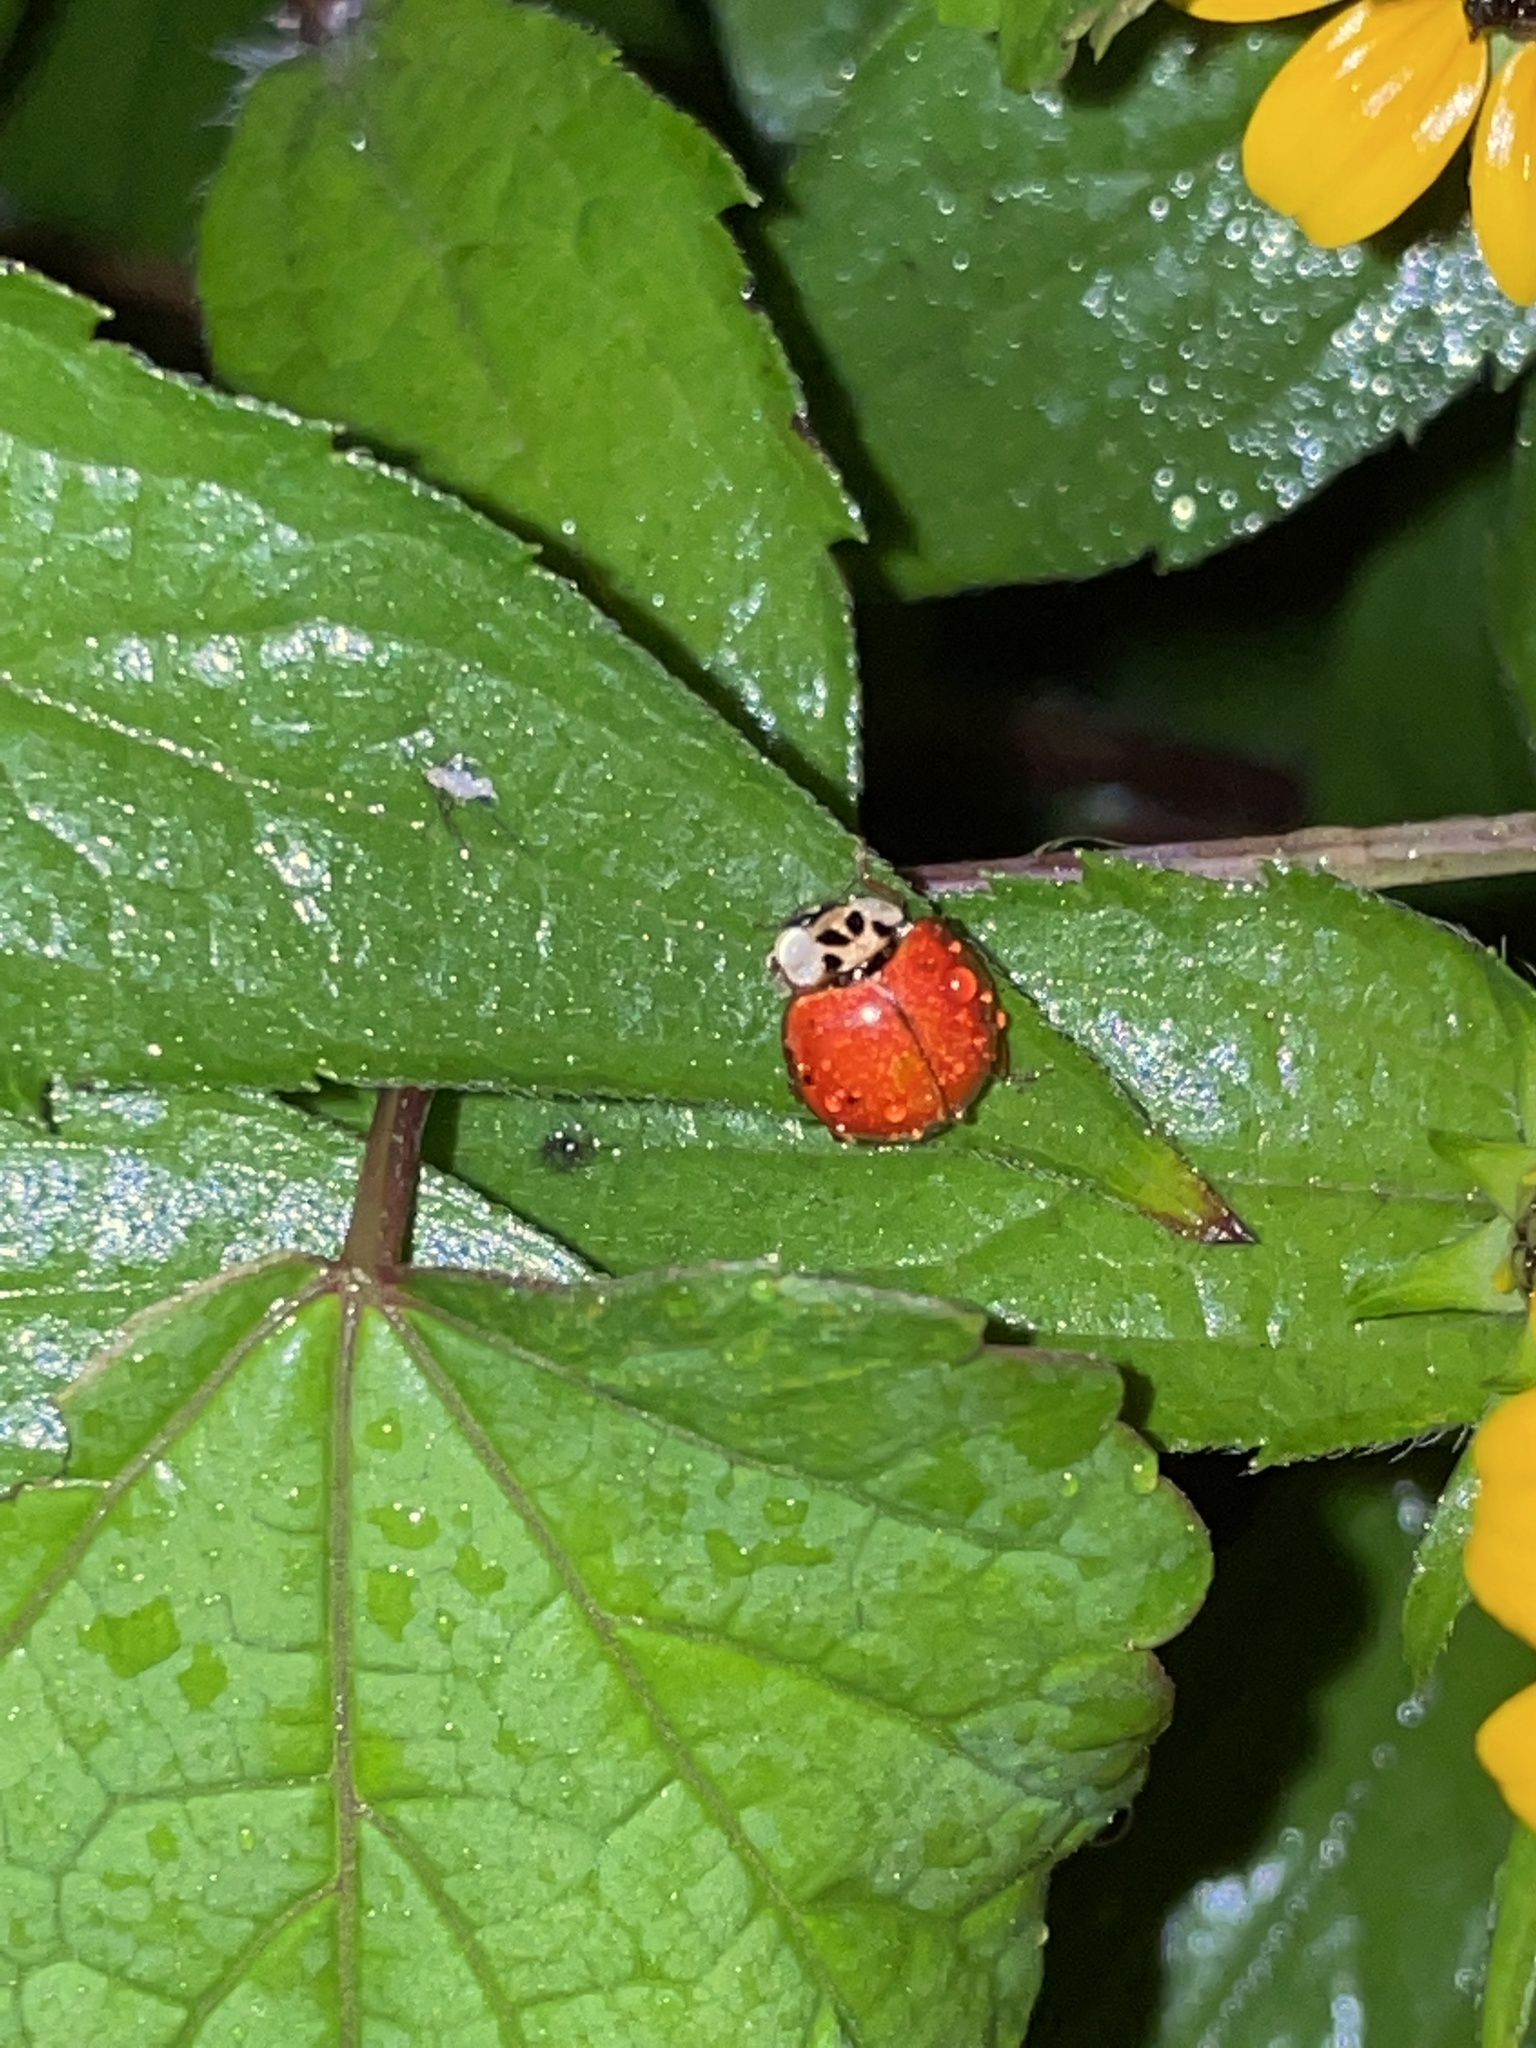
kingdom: Animalia
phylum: Arthropoda
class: Insecta
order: Coleoptera
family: Coccinellidae
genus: Harmonia
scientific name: Harmonia axyridis
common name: Harlequin ladybird
